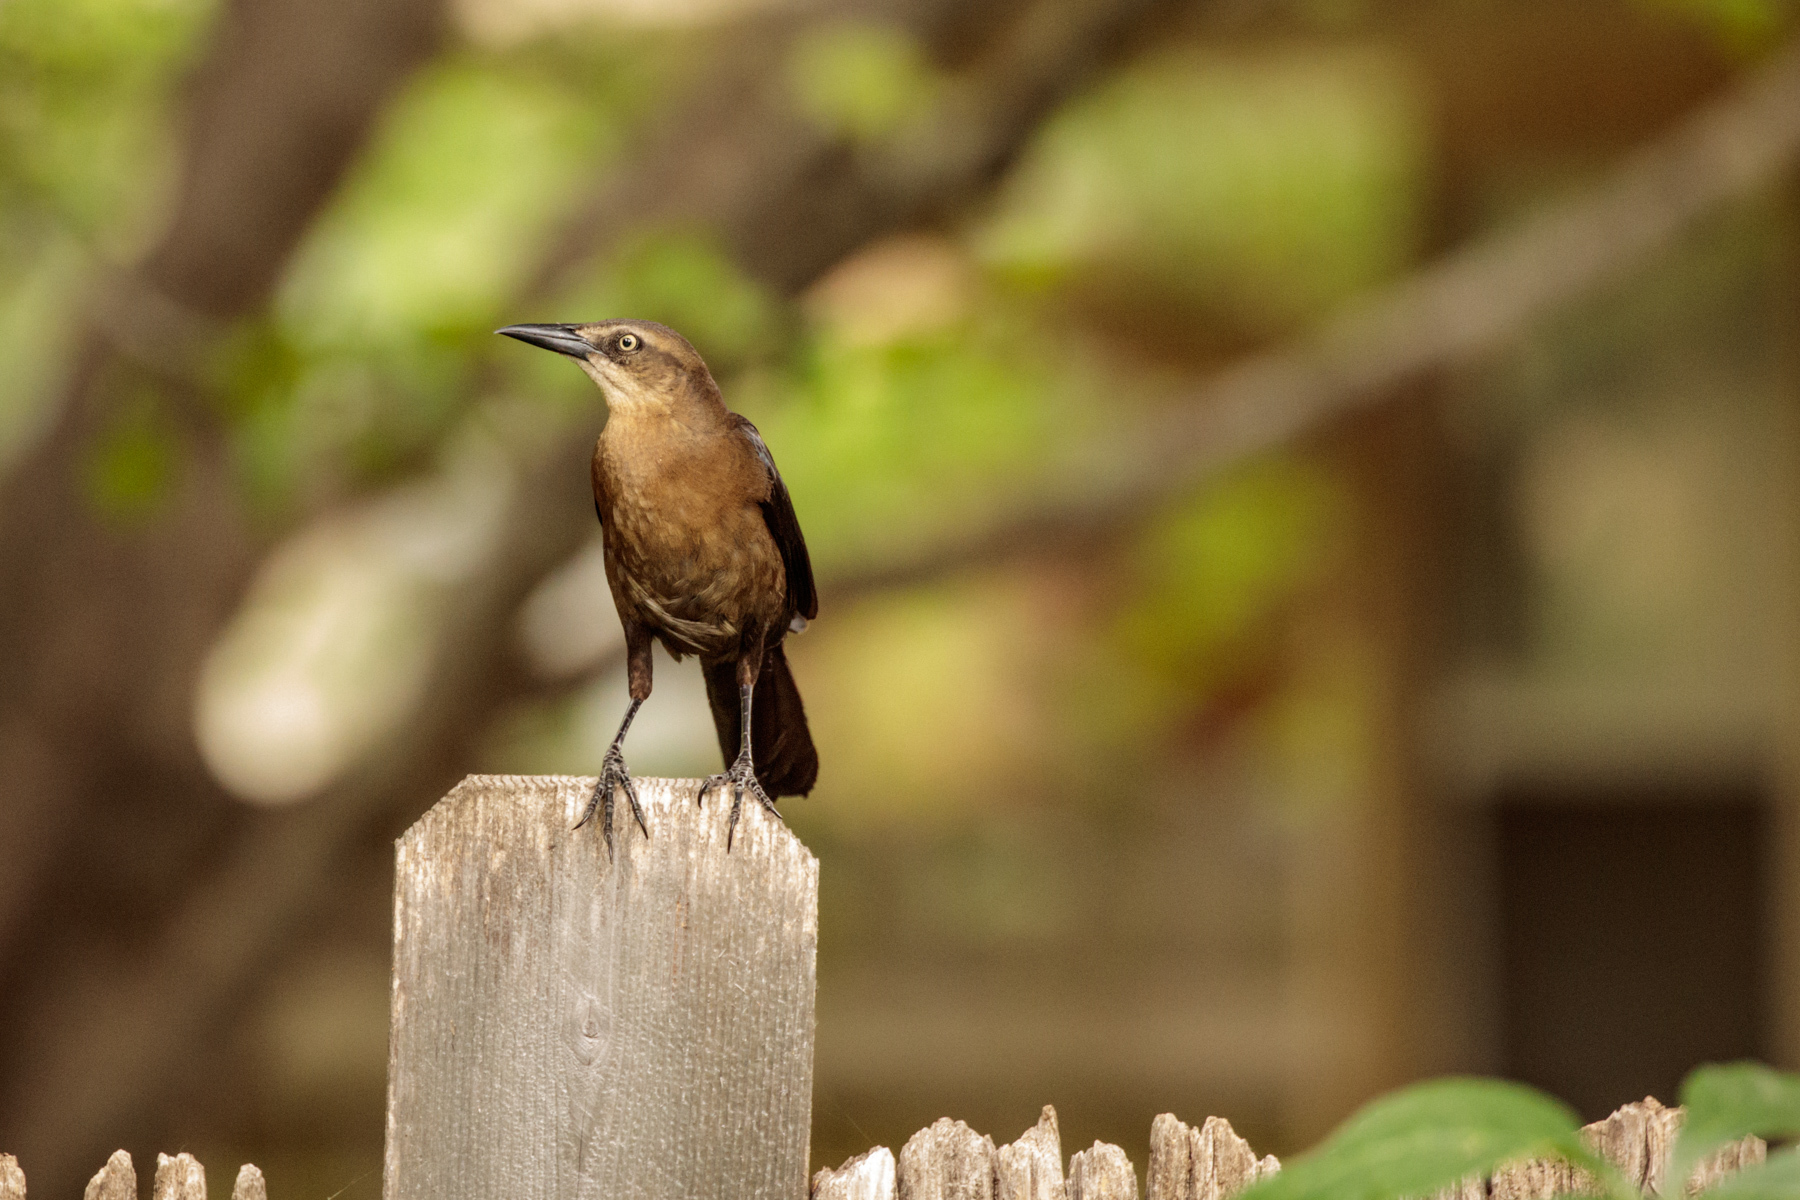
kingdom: Animalia
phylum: Chordata
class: Aves
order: Passeriformes
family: Icteridae
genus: Quiscalus
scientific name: Quiscalus mexicanus
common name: Great-tailed grackle
